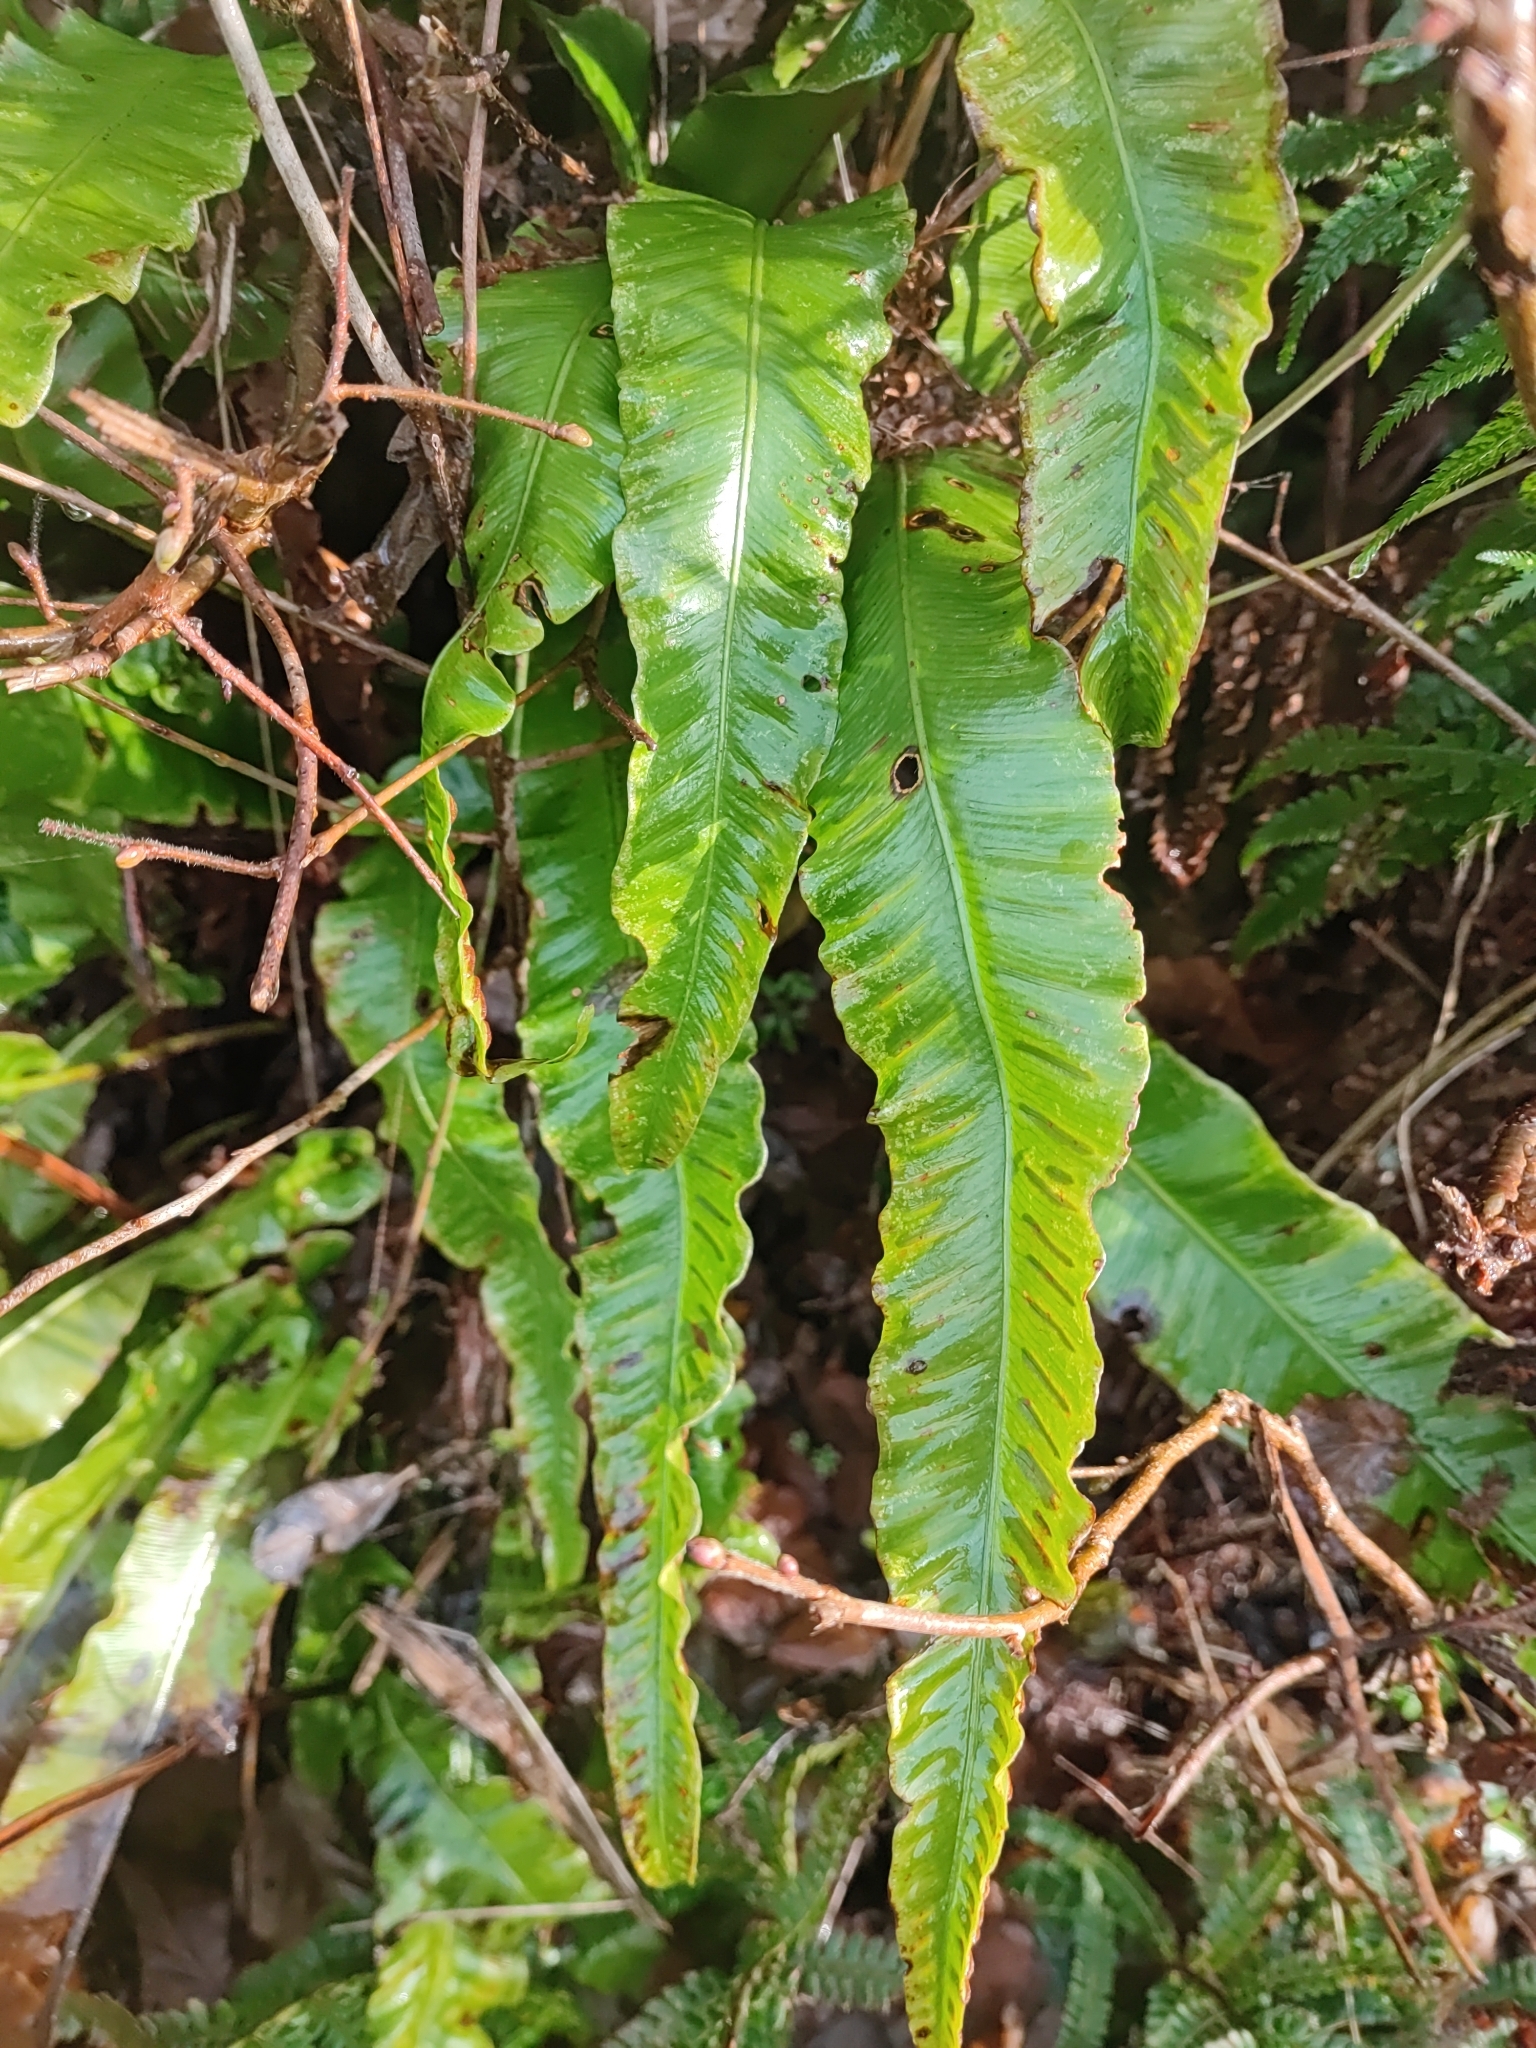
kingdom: Plantae
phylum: Tracheophyta
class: Polypodiopsida
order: Polypodiales
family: Aspleniaceae
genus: Asplenium
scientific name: Asplenium scolopendrium
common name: Hart's-tongue fern
